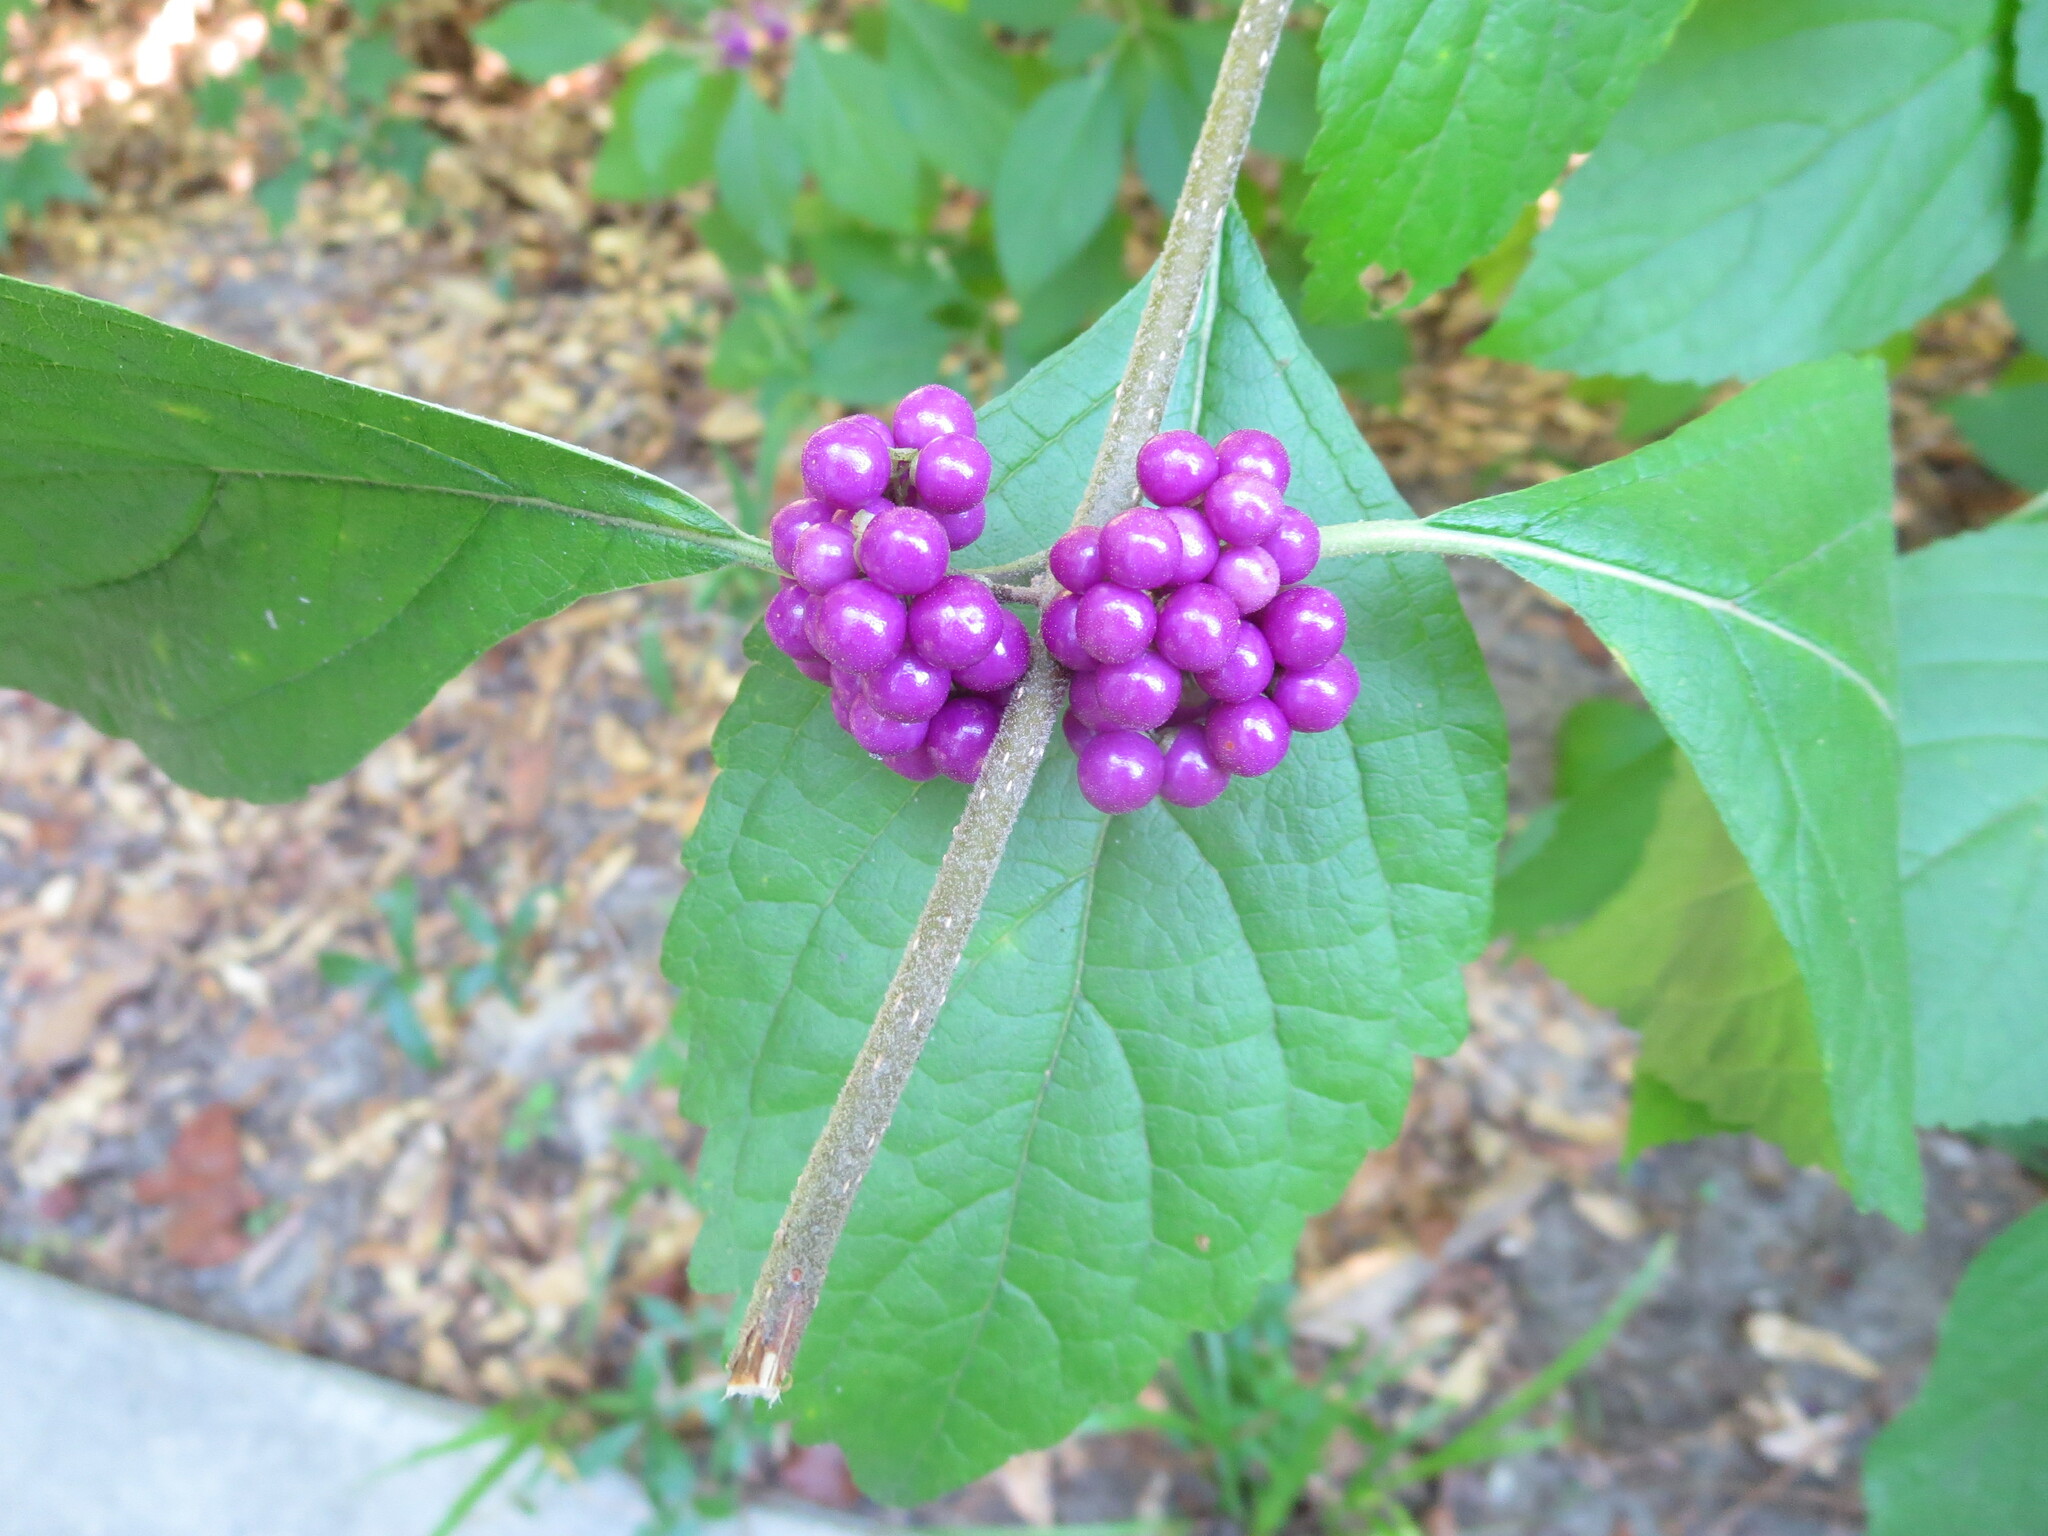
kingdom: Plantae
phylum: Tracheophyta
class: Magnoliopsida
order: Lamiales
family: Lamiaceae
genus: Callicarpa
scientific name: Callicarpa americana
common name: American beautyberry
